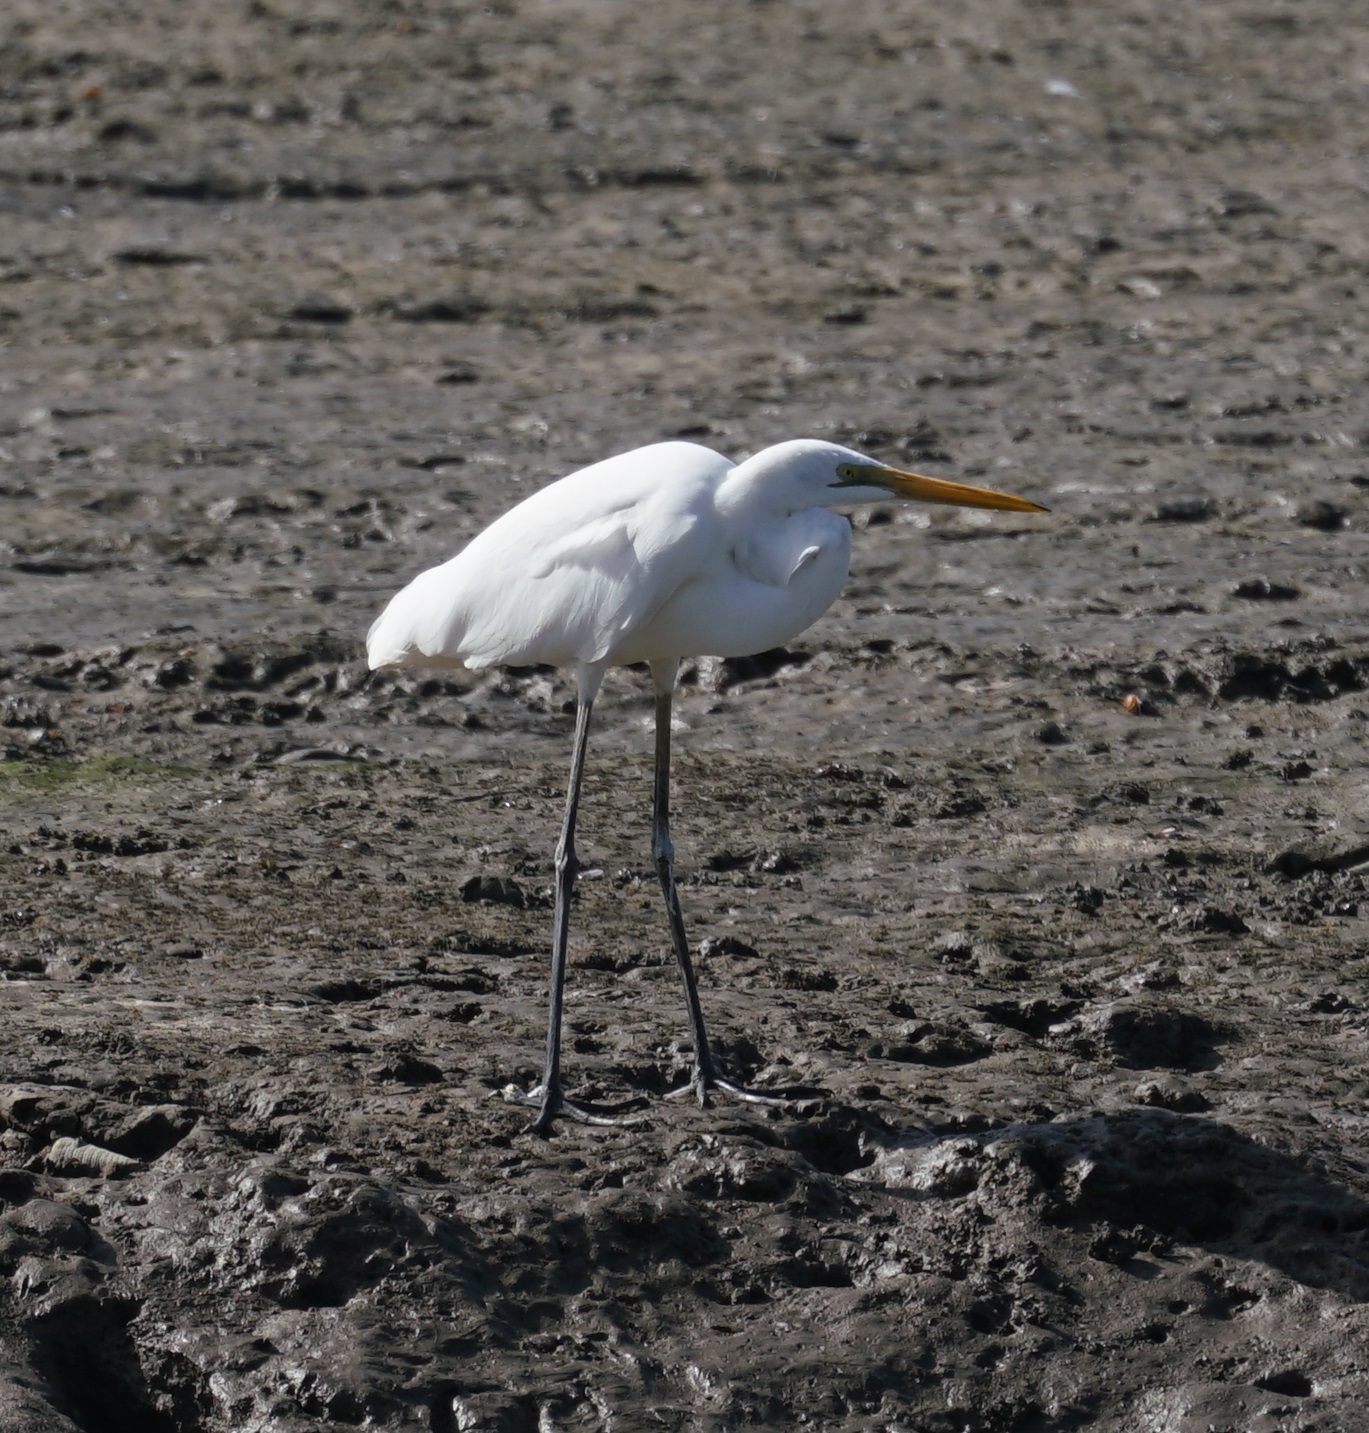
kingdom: Animalia
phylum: Chordata
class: Aves
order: Pelecaniformes
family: Ardeidae
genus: Ardea
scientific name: Ardea modesta
